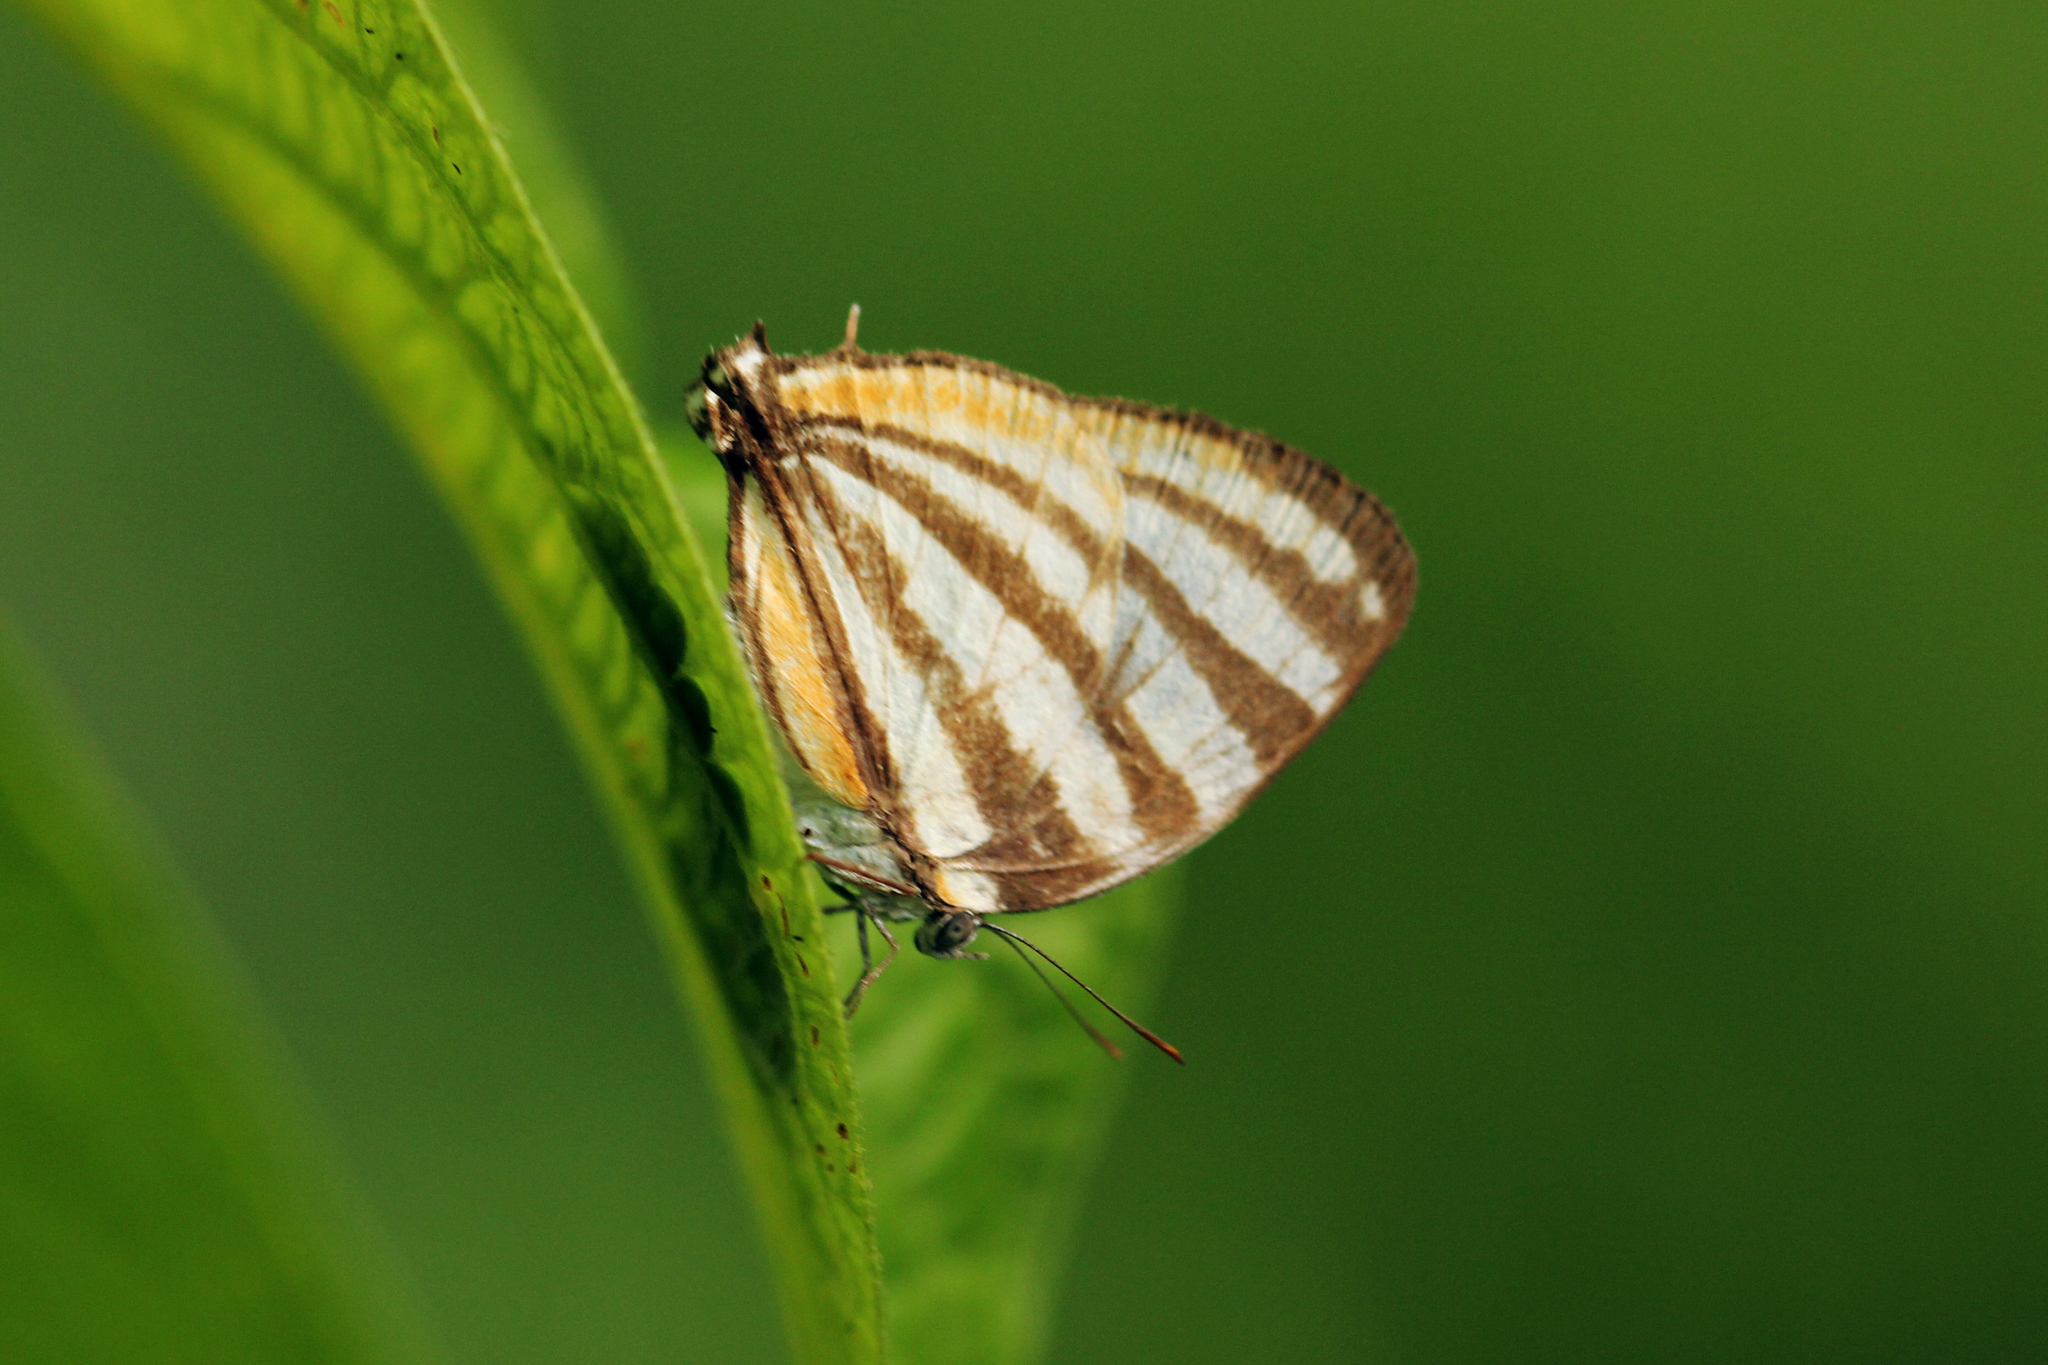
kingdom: Animalia
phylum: Arthropoda
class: Insecta
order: Lepidoptera
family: Lycaenidae
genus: Arawacus
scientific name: Arawacus togarna
